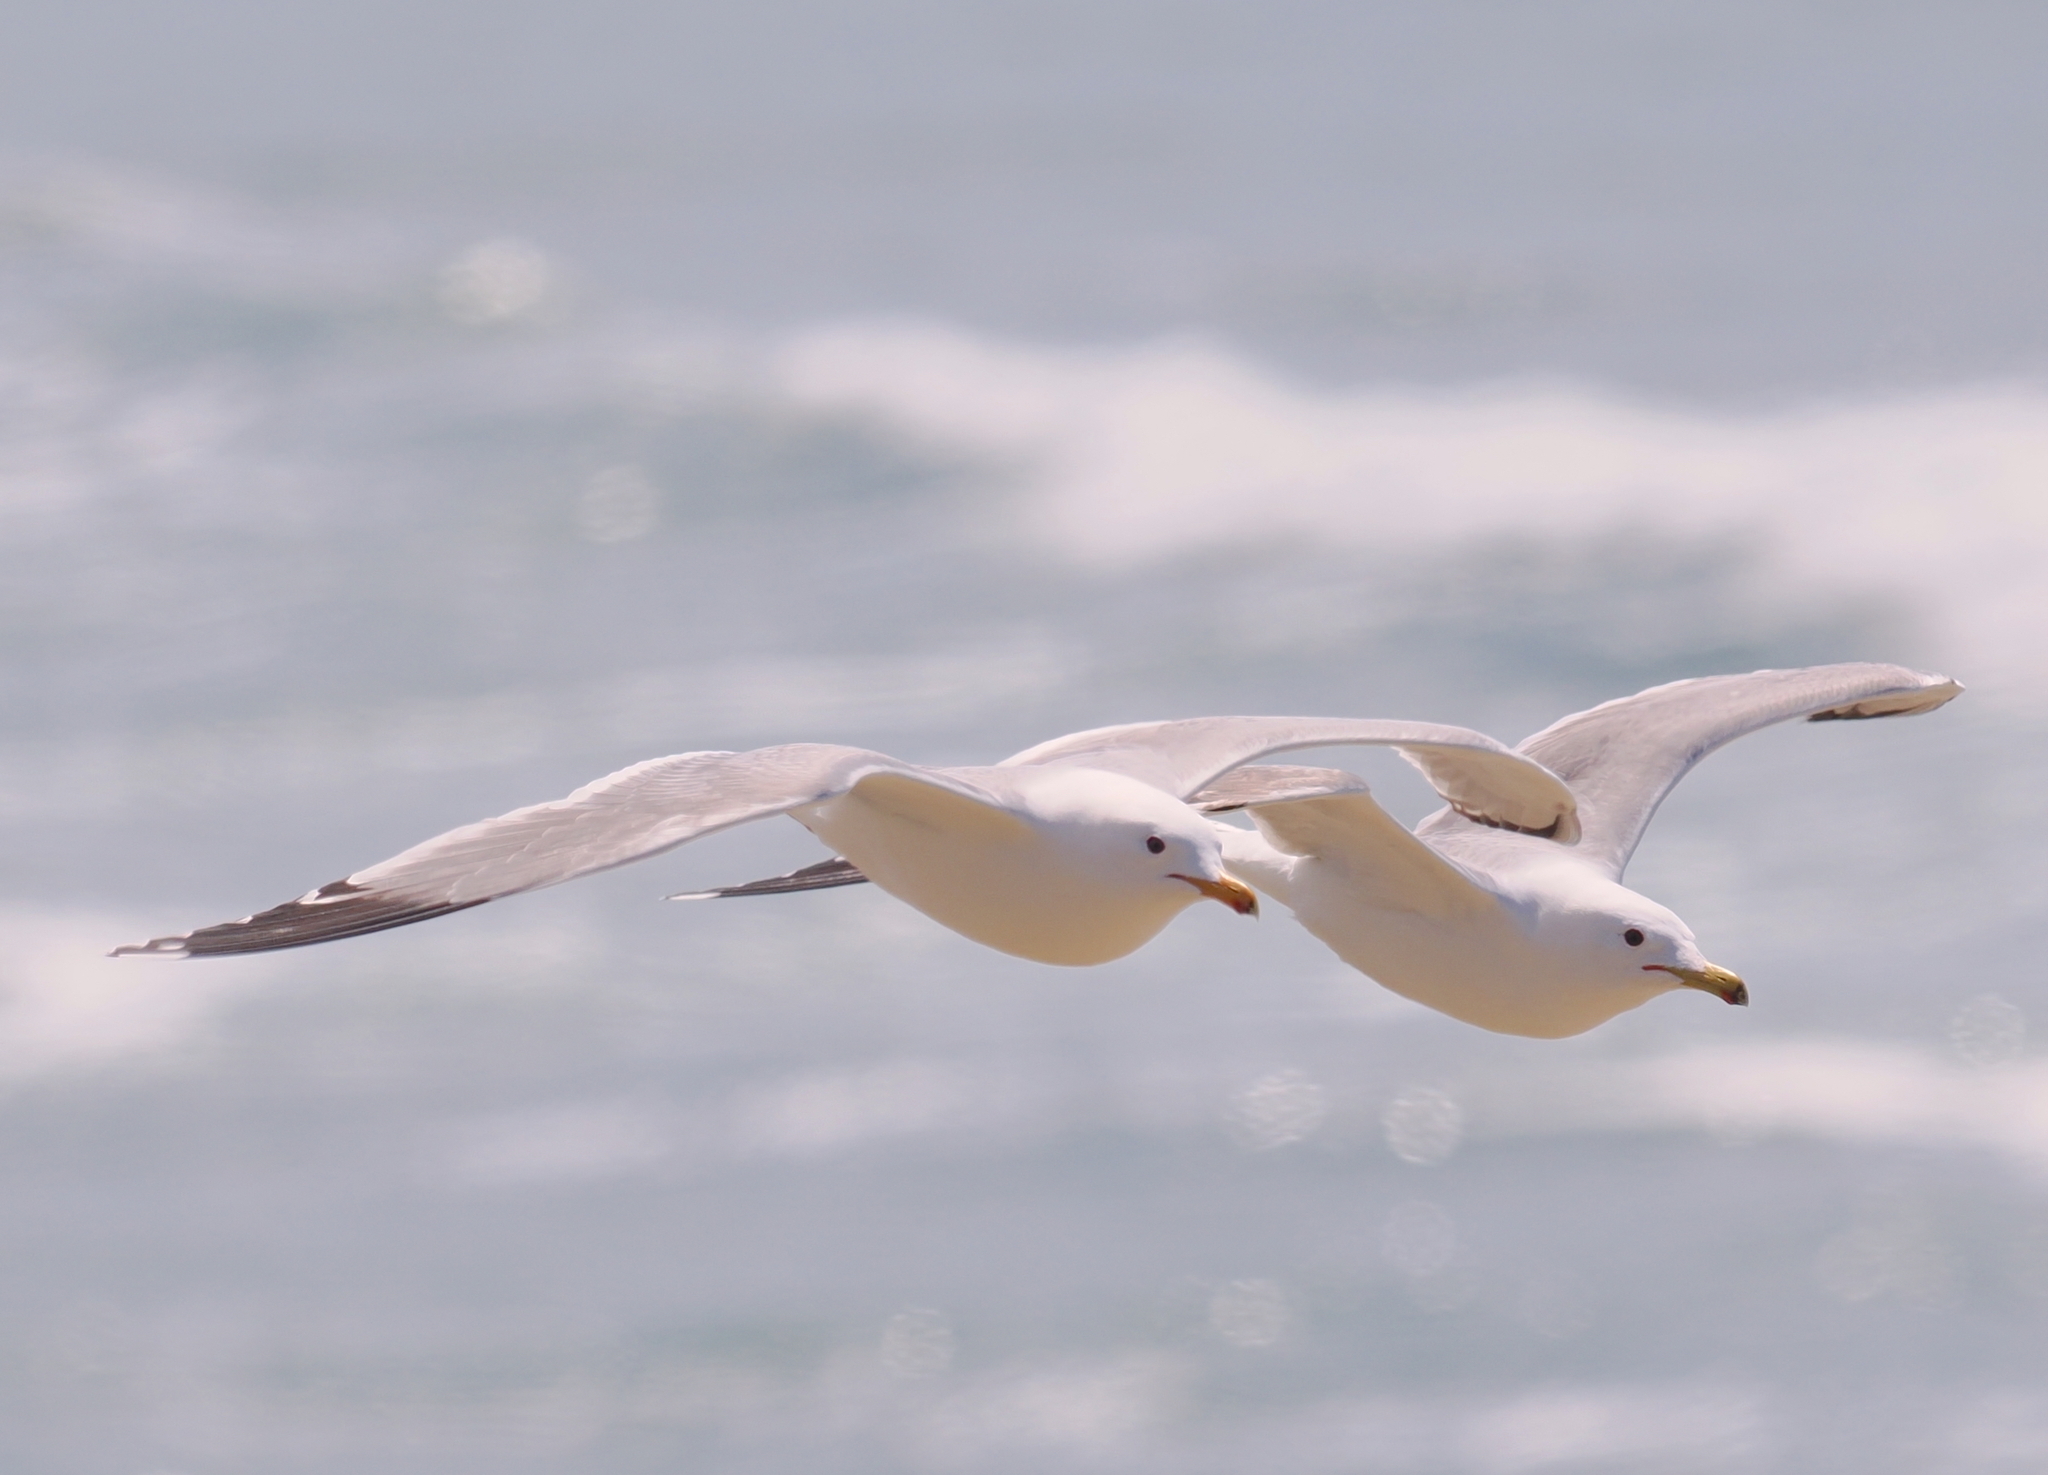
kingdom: Animalia
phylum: Chordata
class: Aves
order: Charadriiformes
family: Laridae
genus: Larus
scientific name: Larus californicus
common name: California gull
